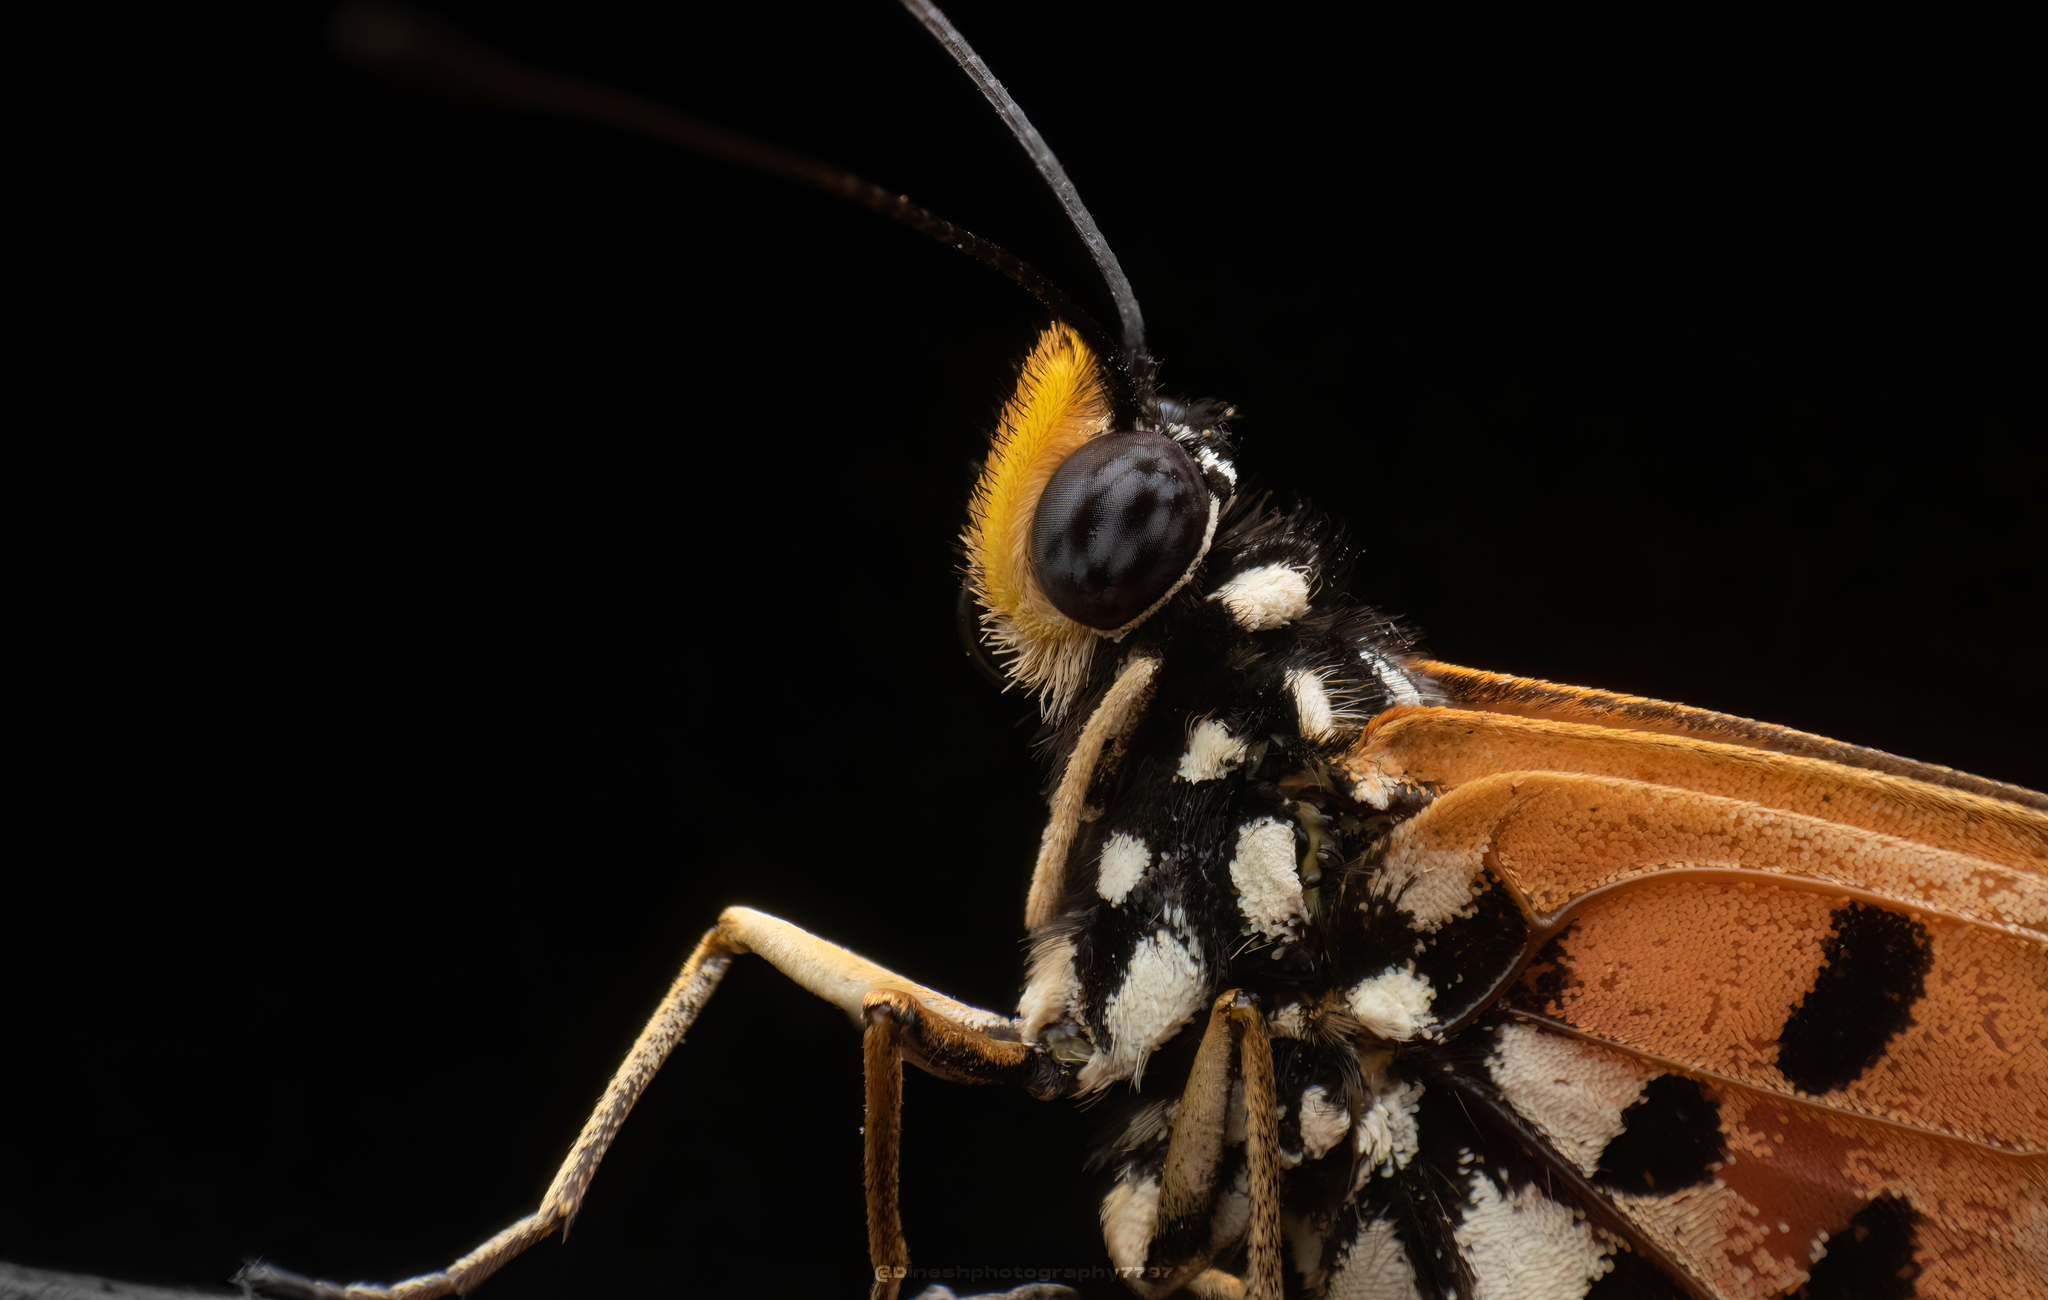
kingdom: Animalia
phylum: Arthropoda
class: Insecta
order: Lepidoptera
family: Nymphalidae
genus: Acraea
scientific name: Acraea terpsicore
